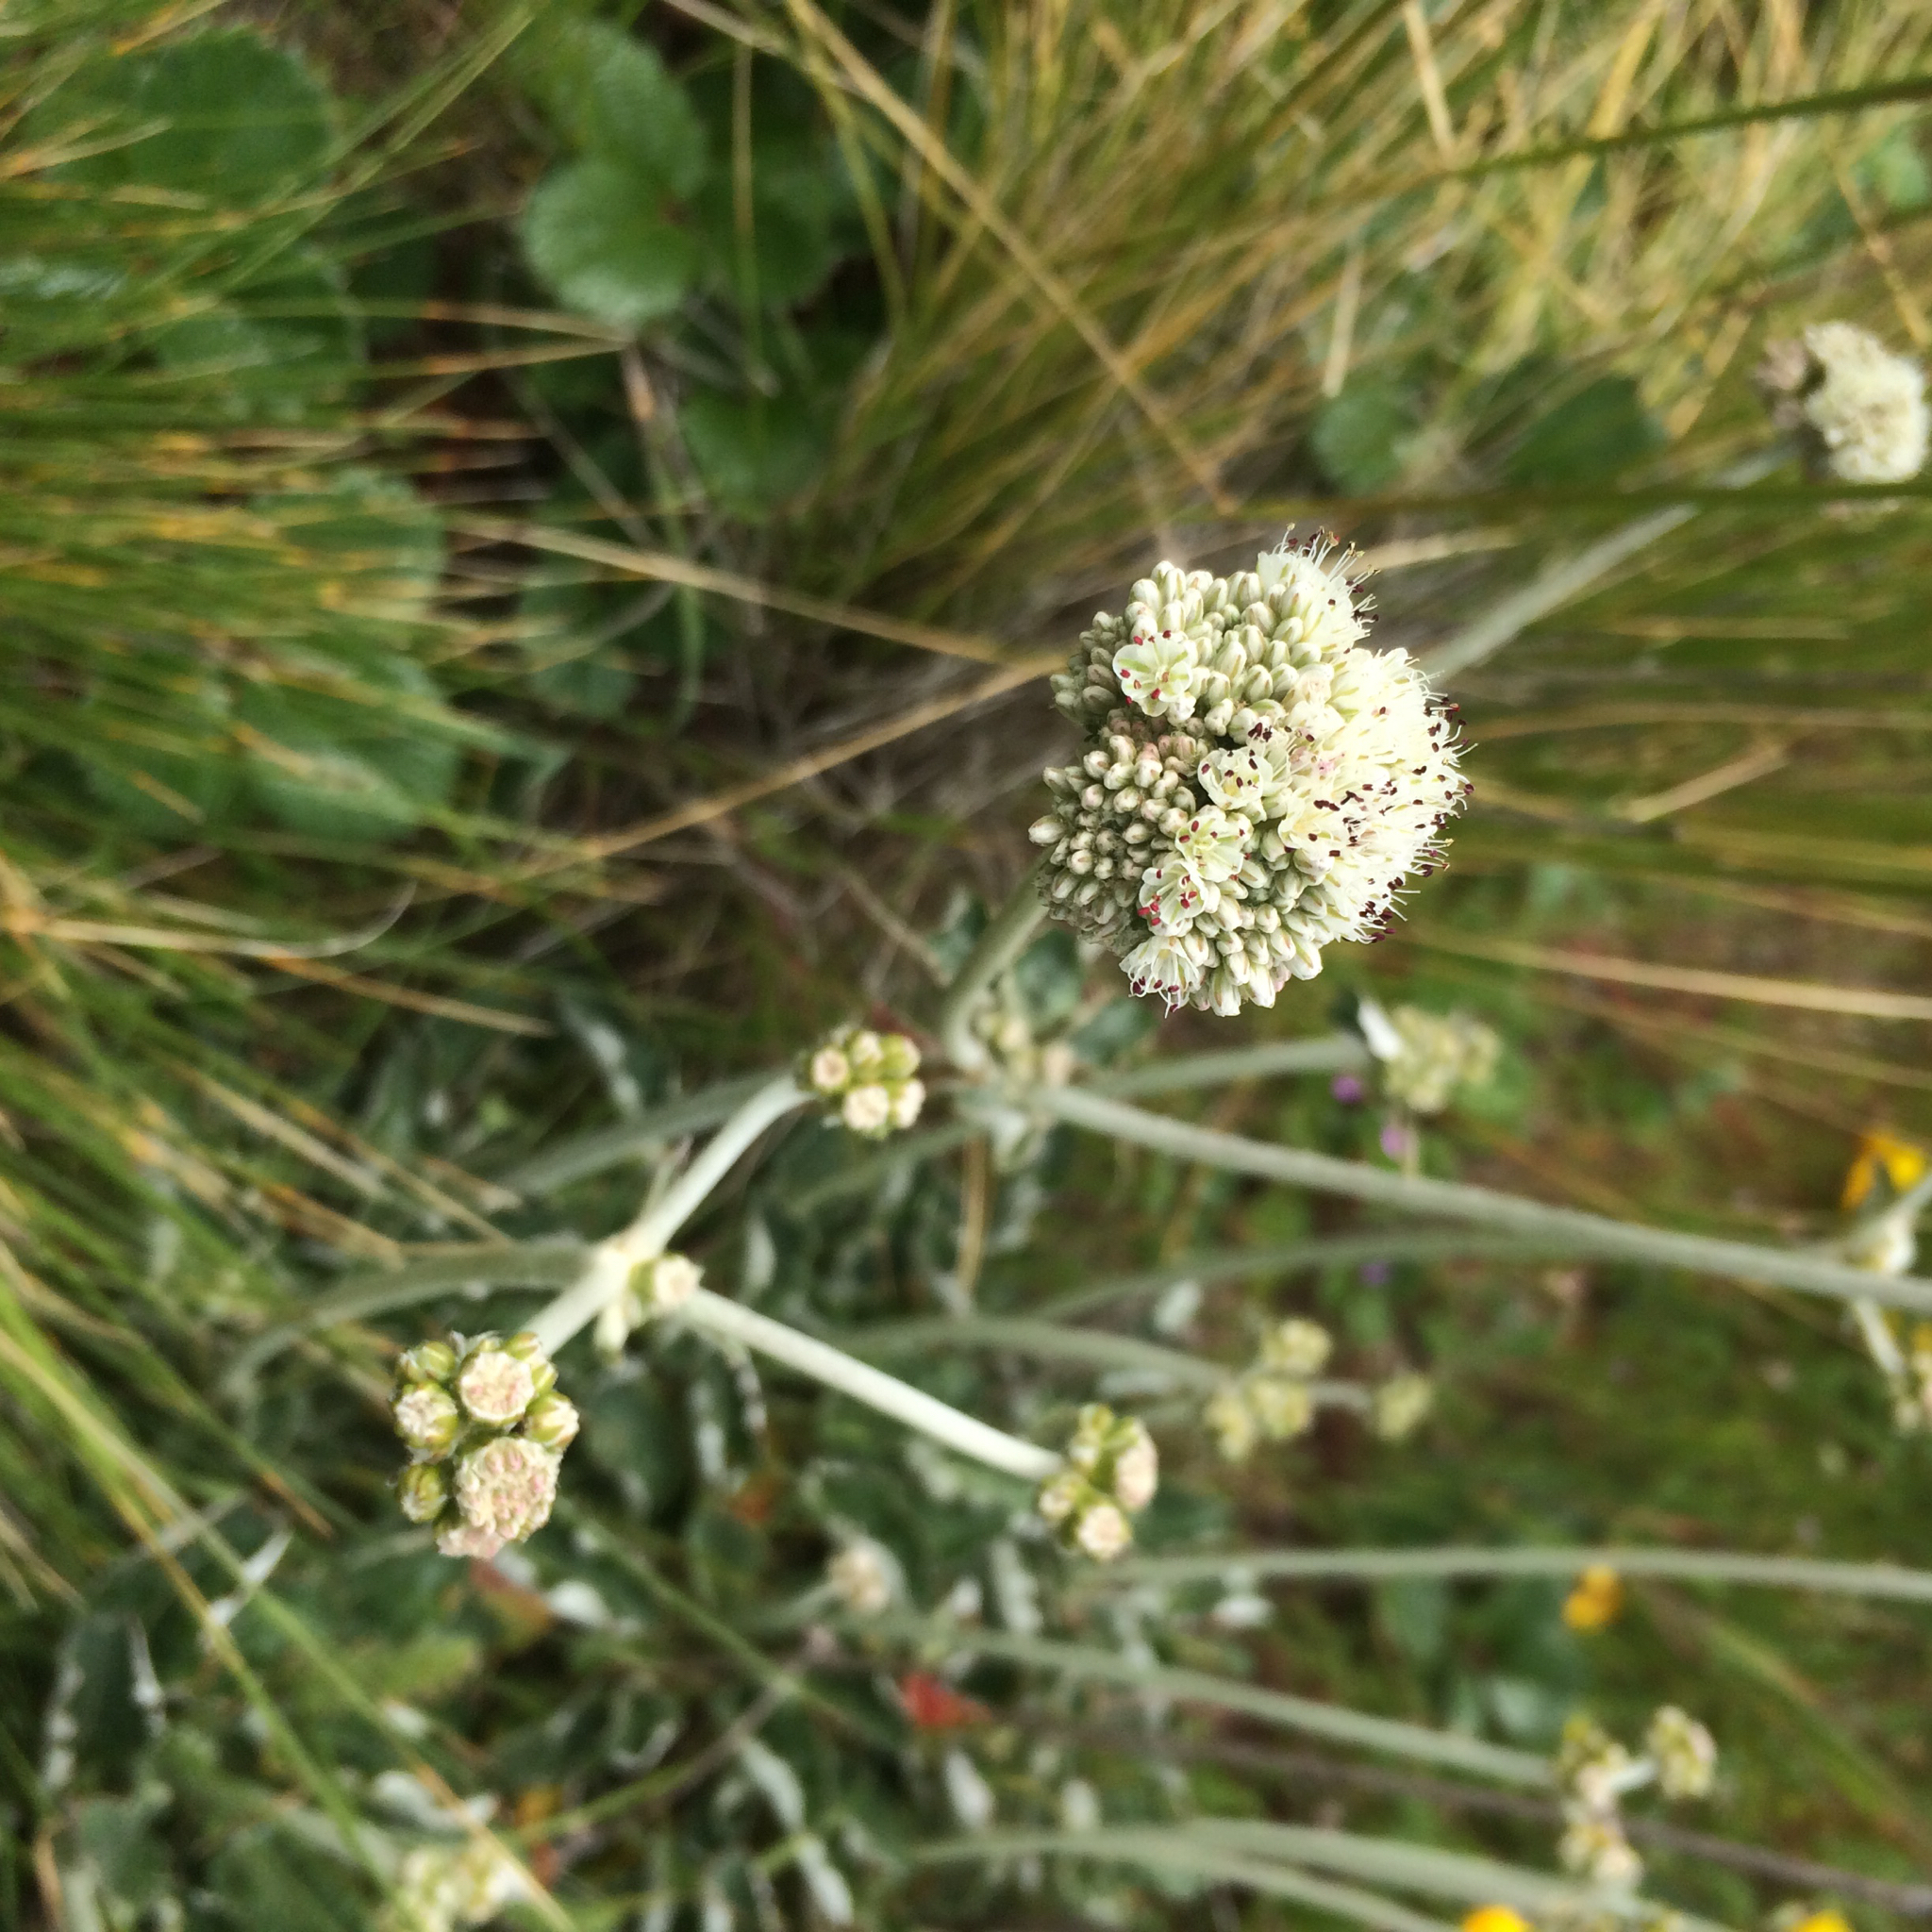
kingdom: Plantae
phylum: Tracheophyta
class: Magnoliopsida
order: Caryophyllales
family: Polygonaceae
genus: Eriogonum
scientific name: Eriogonum latifolium
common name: Seaside wild buckwheat
